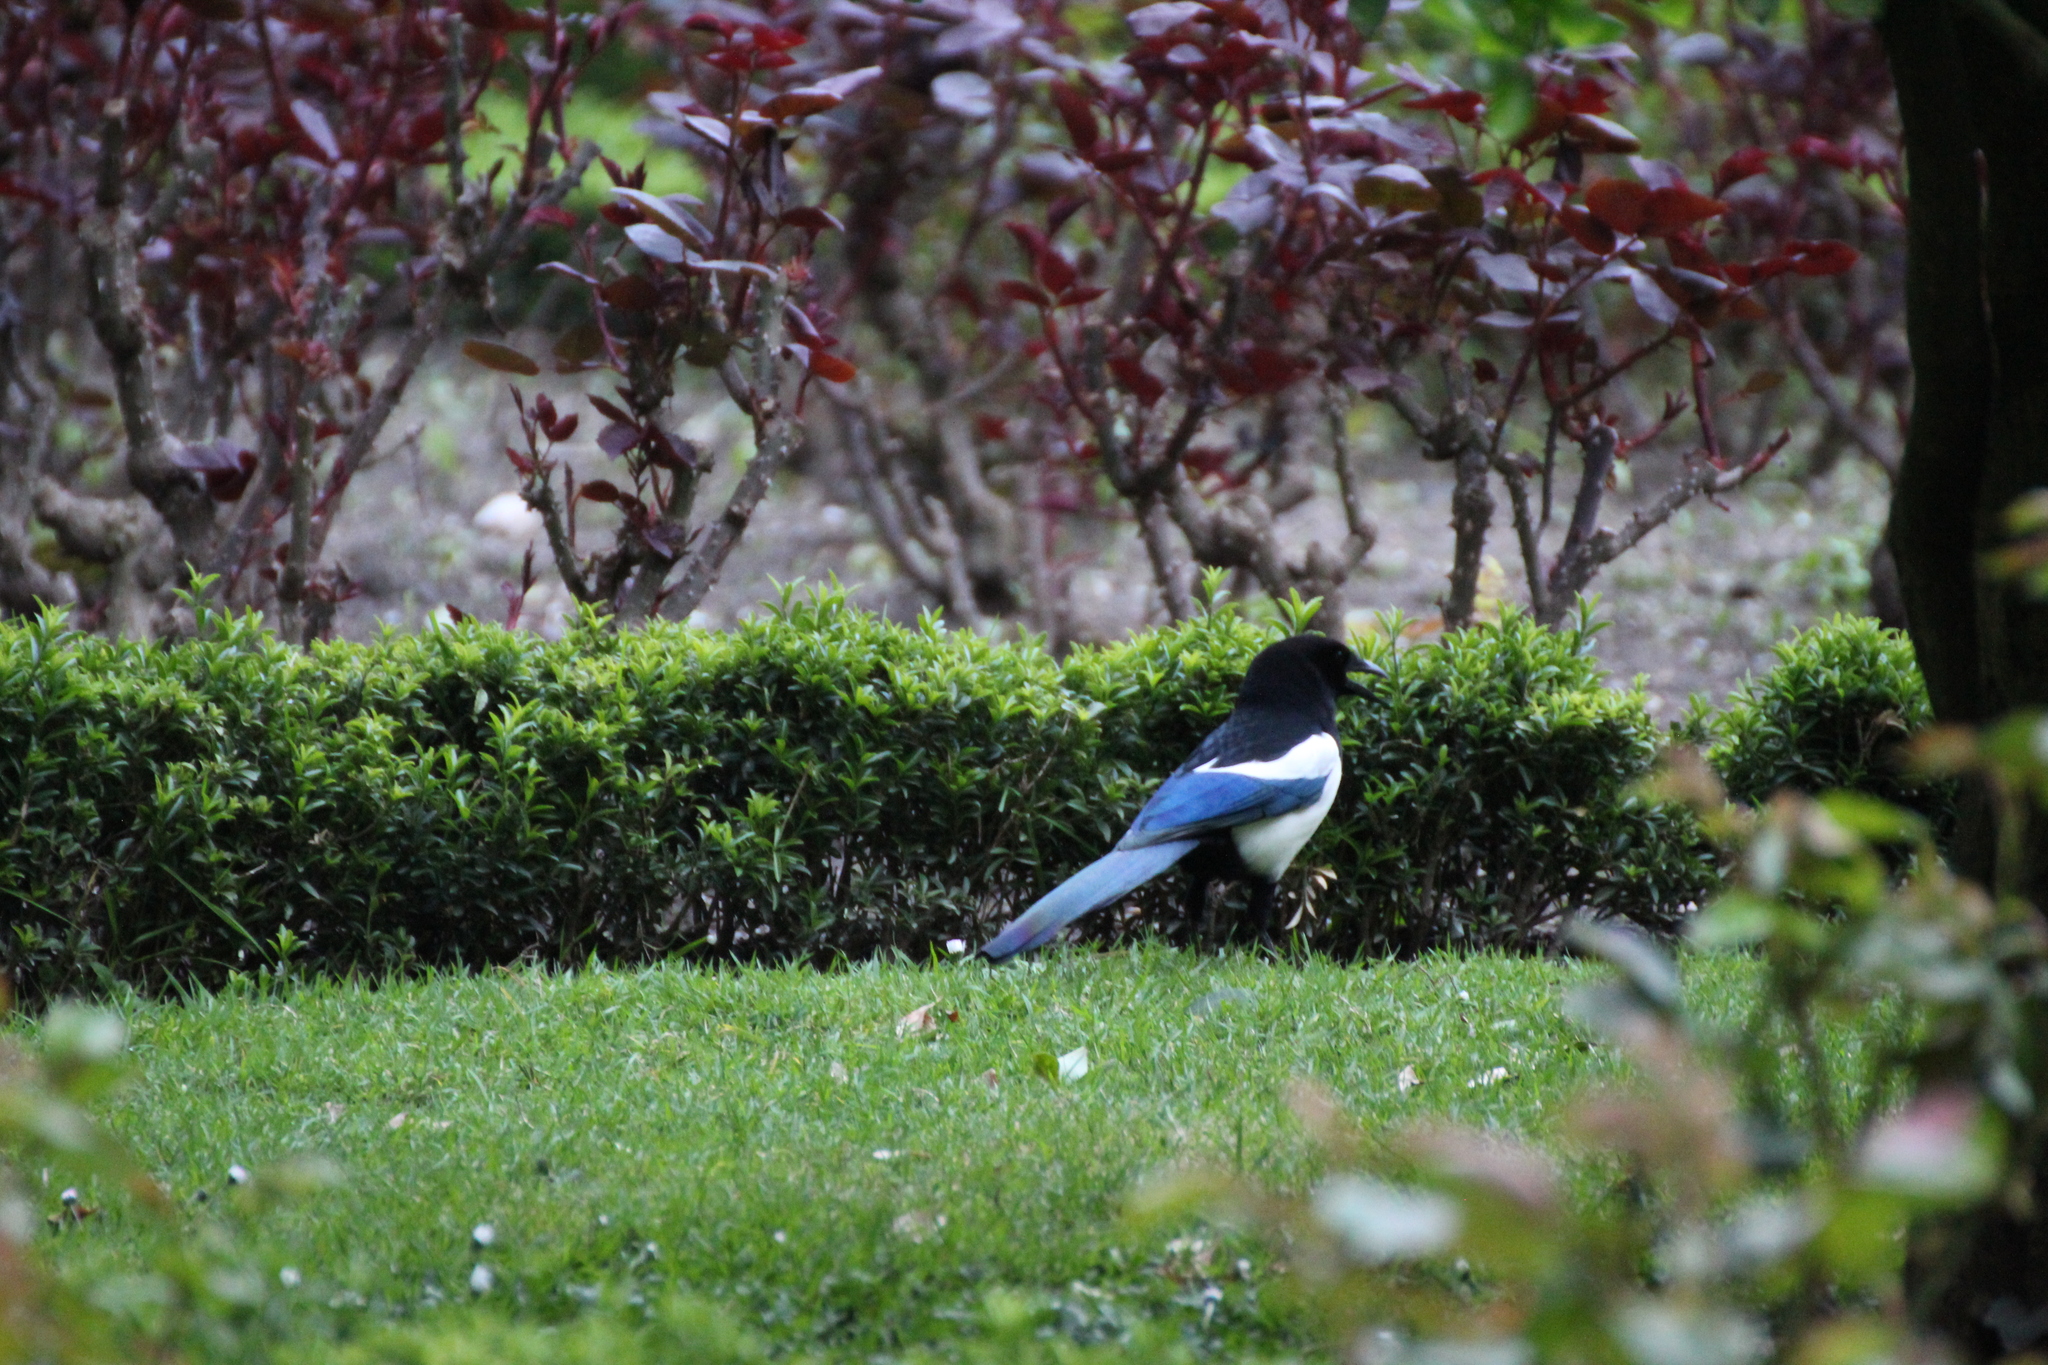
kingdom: Animalia
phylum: Chordata
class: Aves
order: Passeriformes
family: Corvidae
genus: Pica
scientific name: Pica pica
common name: Eurasian magpie
